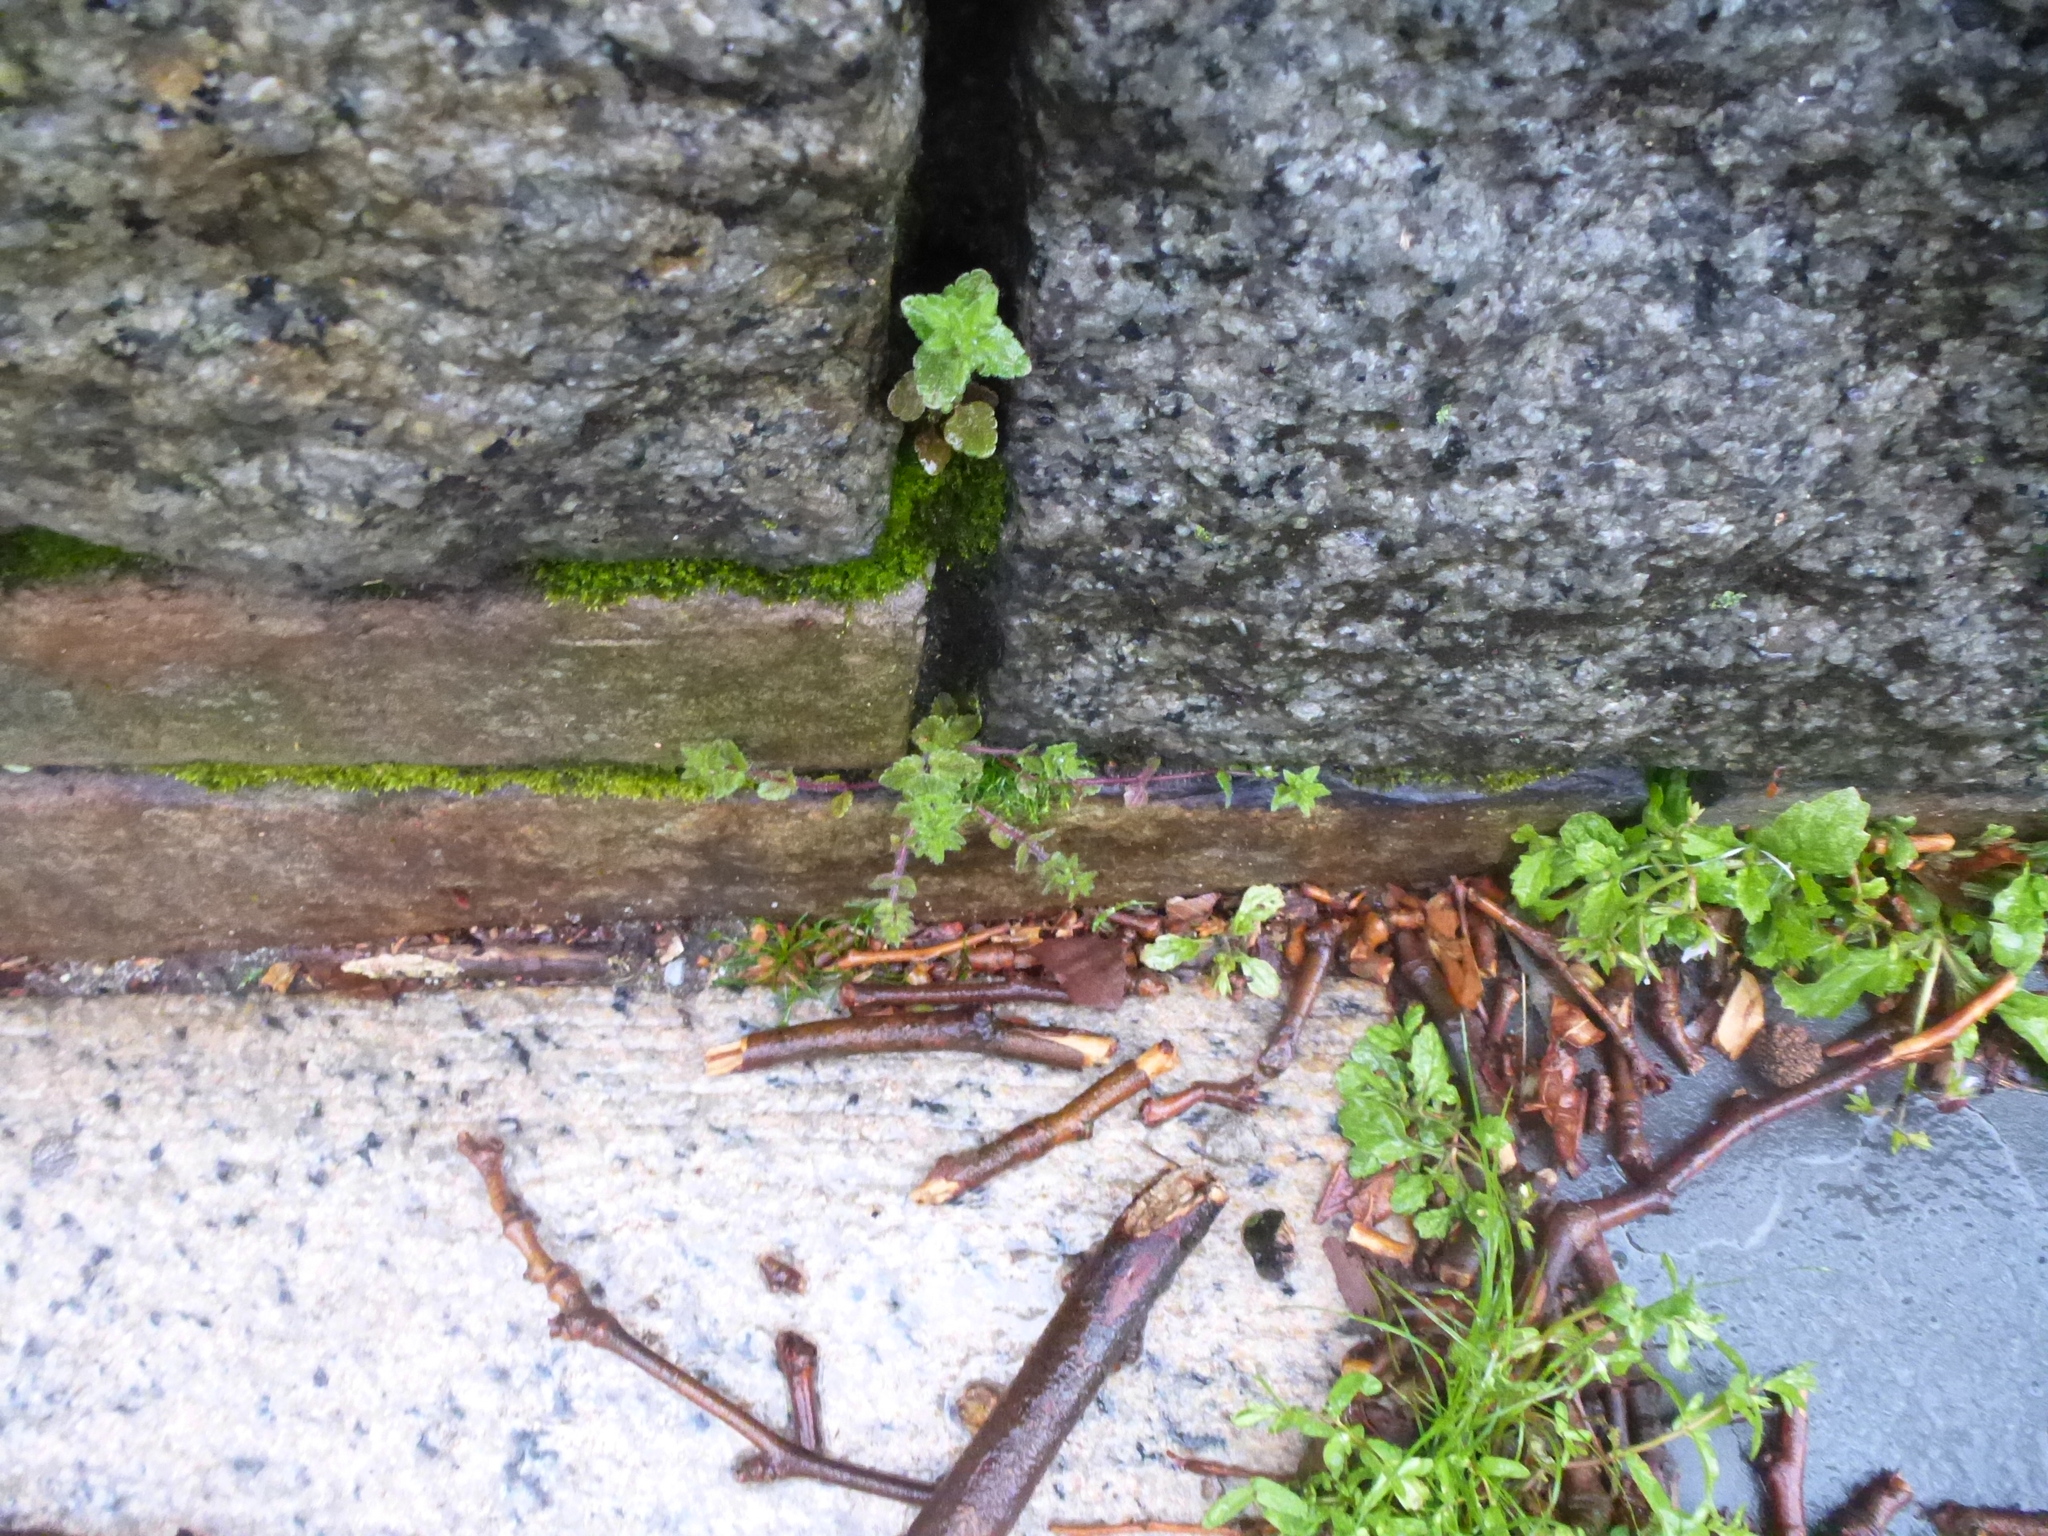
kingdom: Plantae
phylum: Tracheophyta
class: Magnoliopsida
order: Lamiales
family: Plantaginaceae
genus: Veronica
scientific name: Veronica arvensis
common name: Corn speedwell
